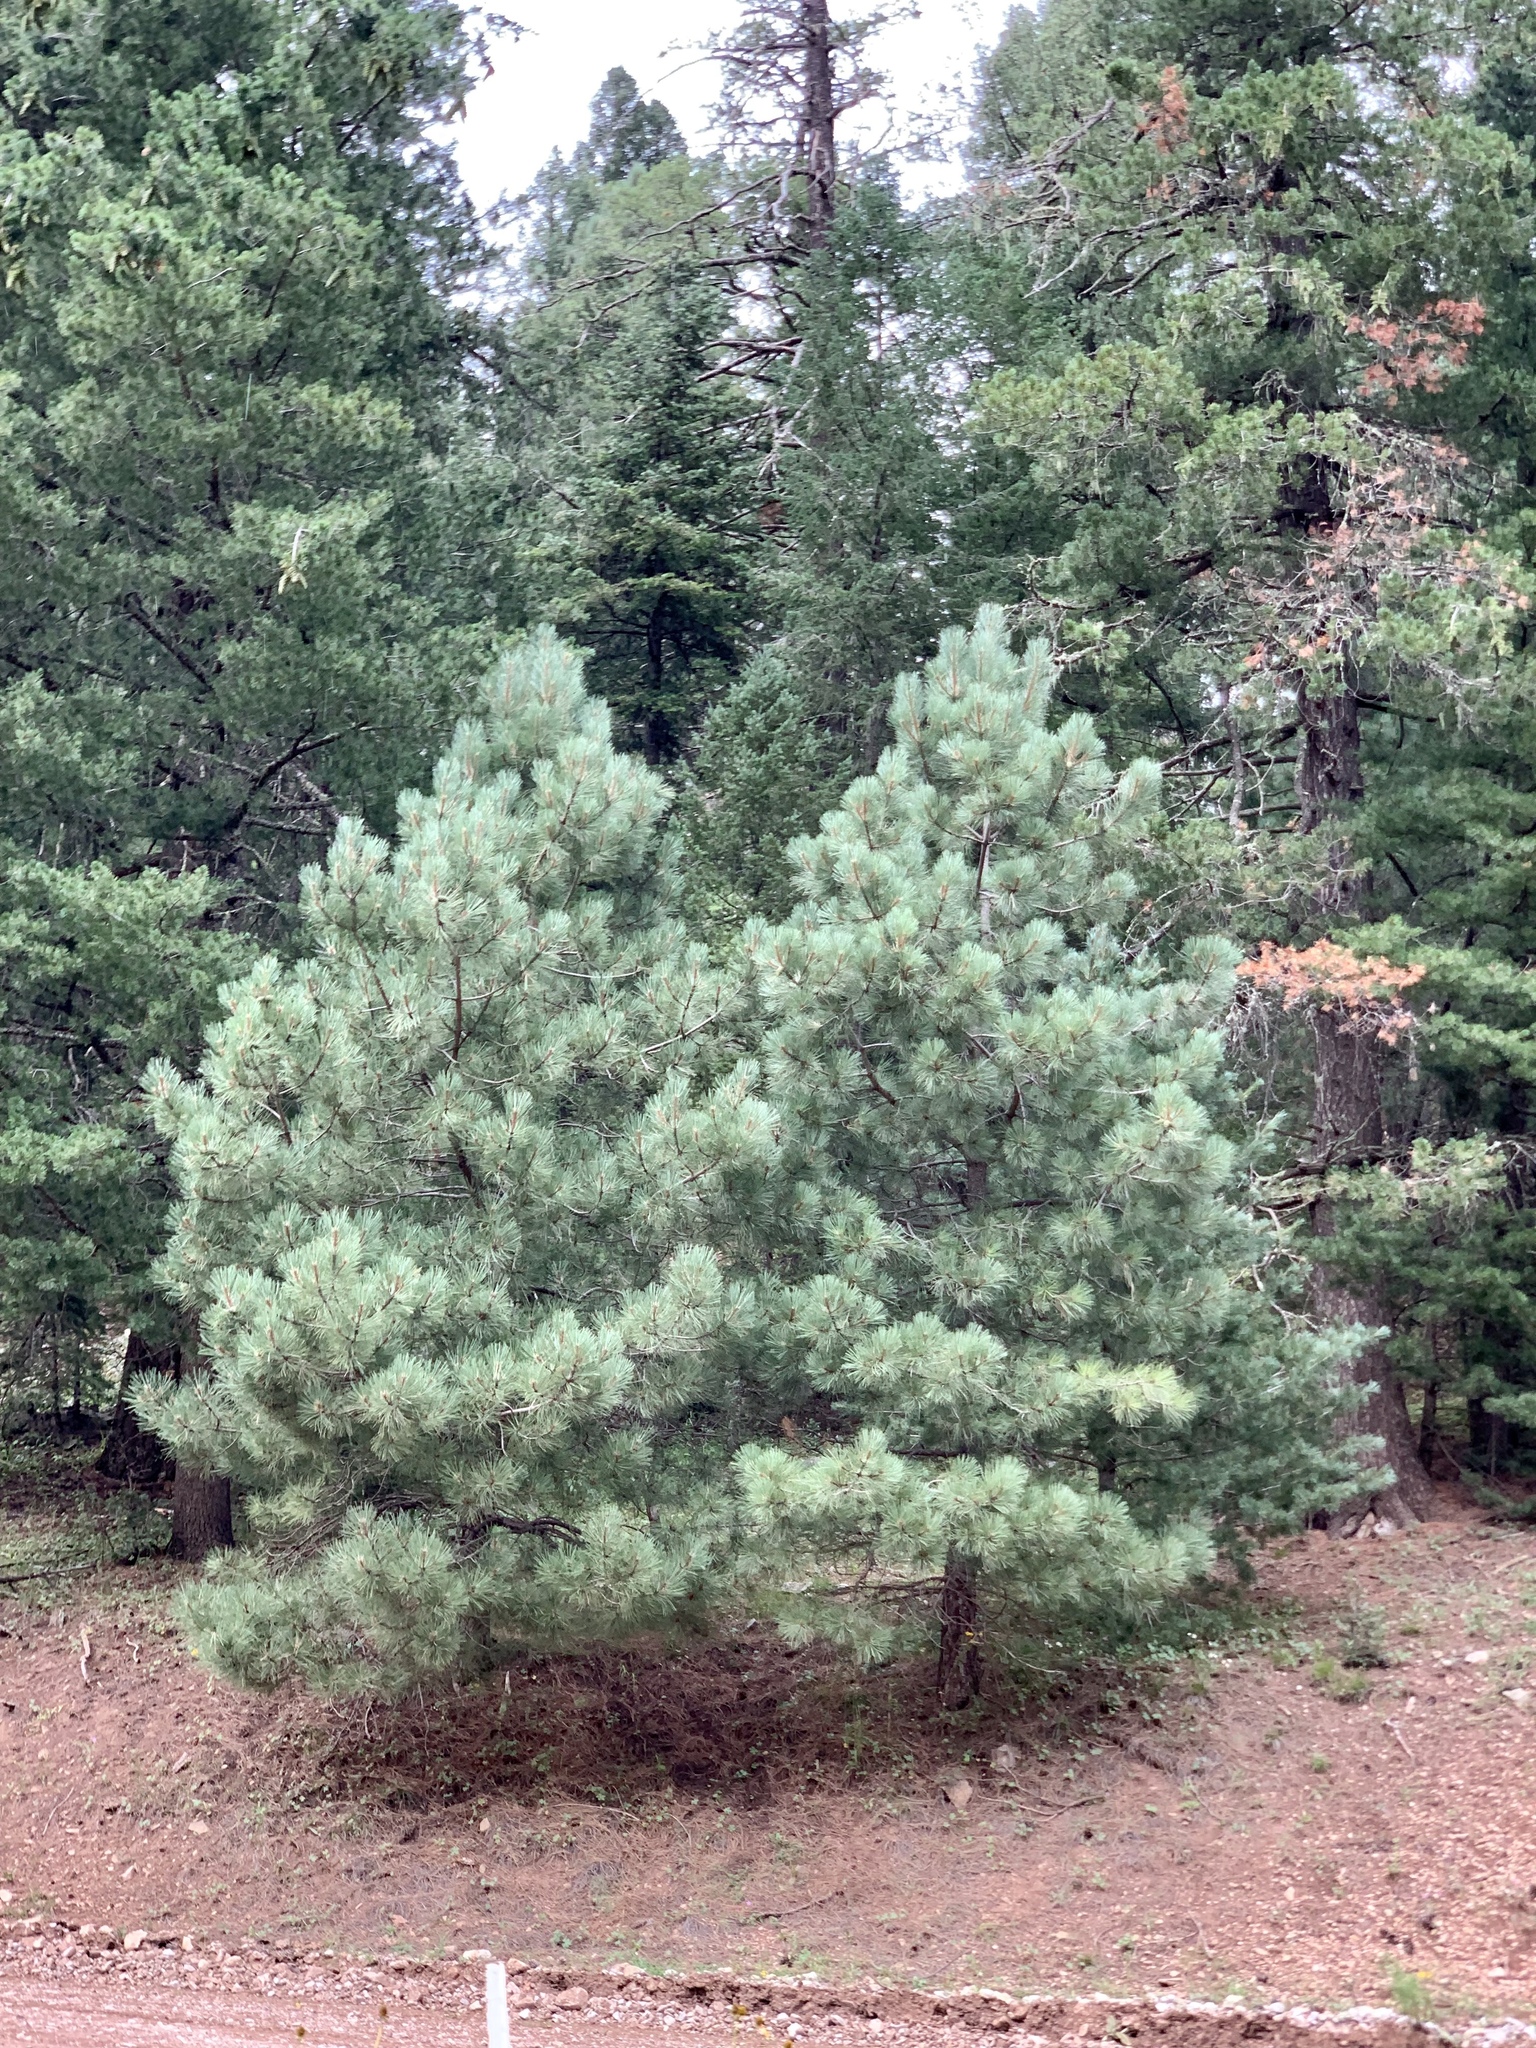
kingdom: Plantae
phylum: Tracheophyta
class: Pinopsida
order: Pinales
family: Pinaceae
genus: Pinus
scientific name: Pinus strobiformis
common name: Southwestern white pine
